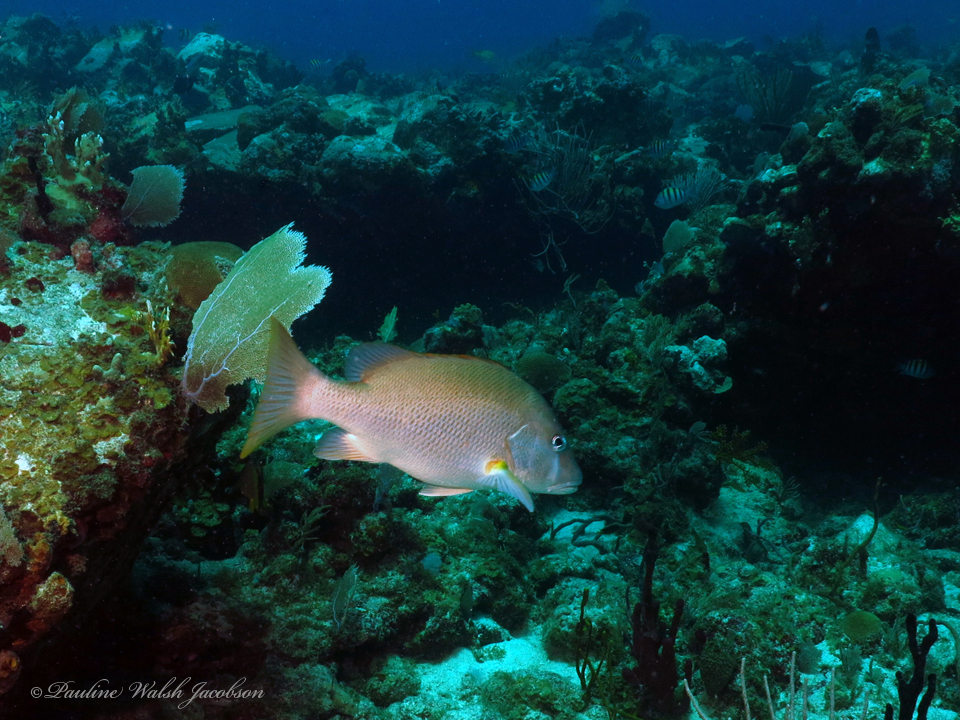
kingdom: Animalia
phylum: Chordata
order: Perciformes
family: Lutjanidae
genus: Lutjanus
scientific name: Lutjanus jocu
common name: Dog snapper
